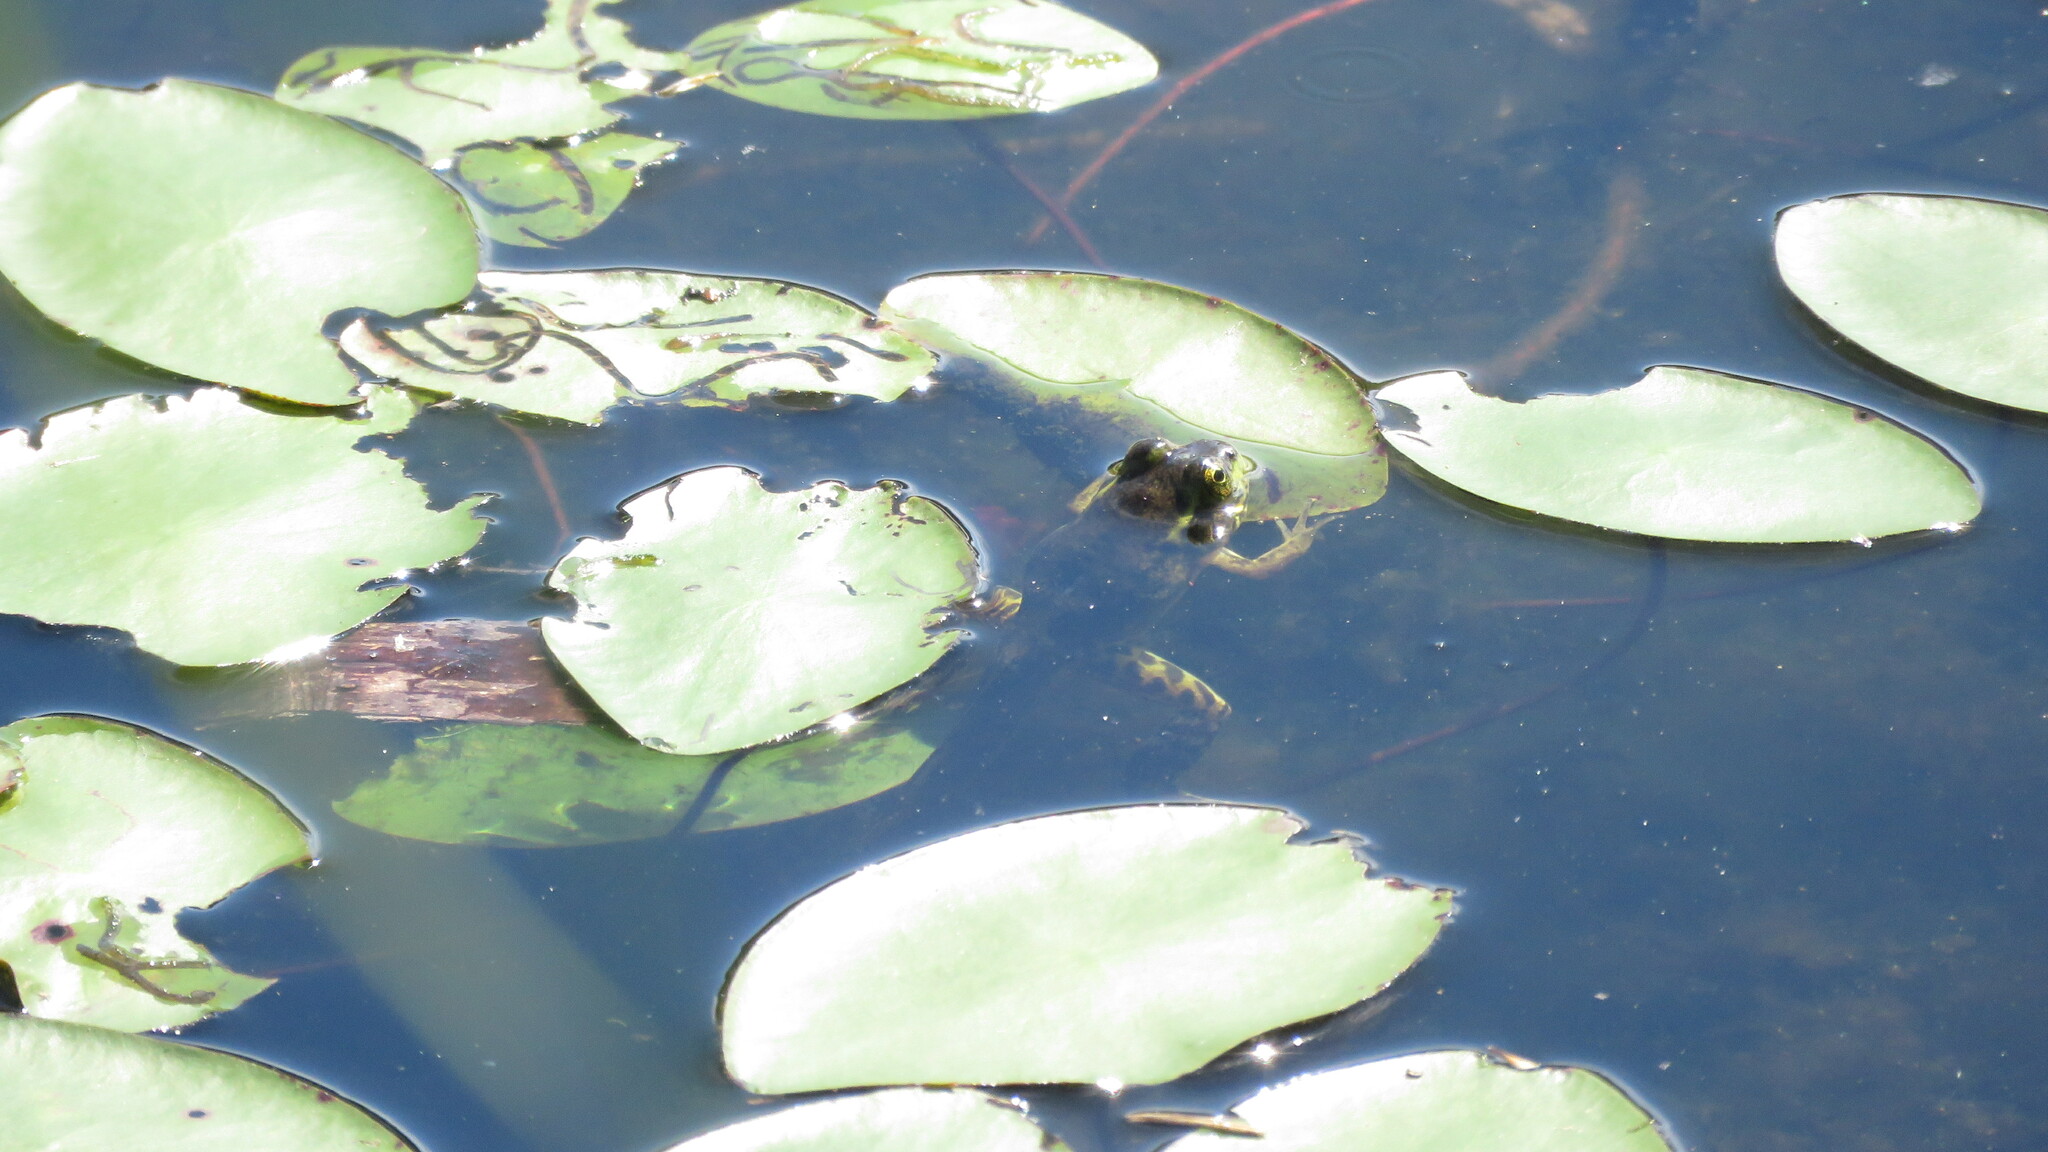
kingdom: Animalia
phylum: Chordata
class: Amphibia
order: Anura
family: Ranidae
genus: Lithobates
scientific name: Lithobates septentrionalis
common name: Mink frog
